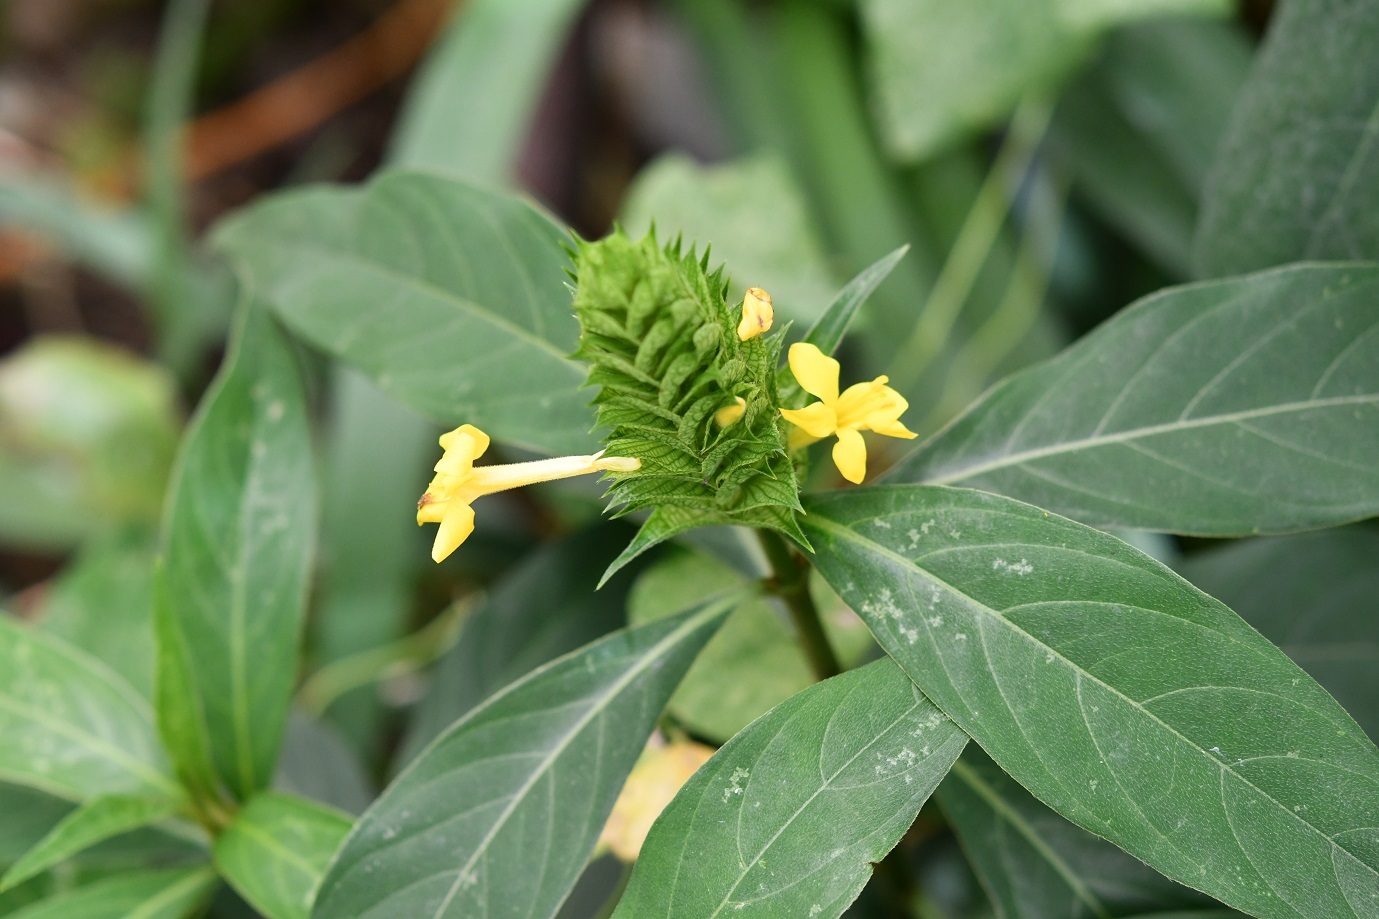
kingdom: Plantae
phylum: Tracheophyta
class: Magnoliopsida
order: Lamiales
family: Acanthaceae
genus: Barleria
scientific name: Barleria oenotheroides
